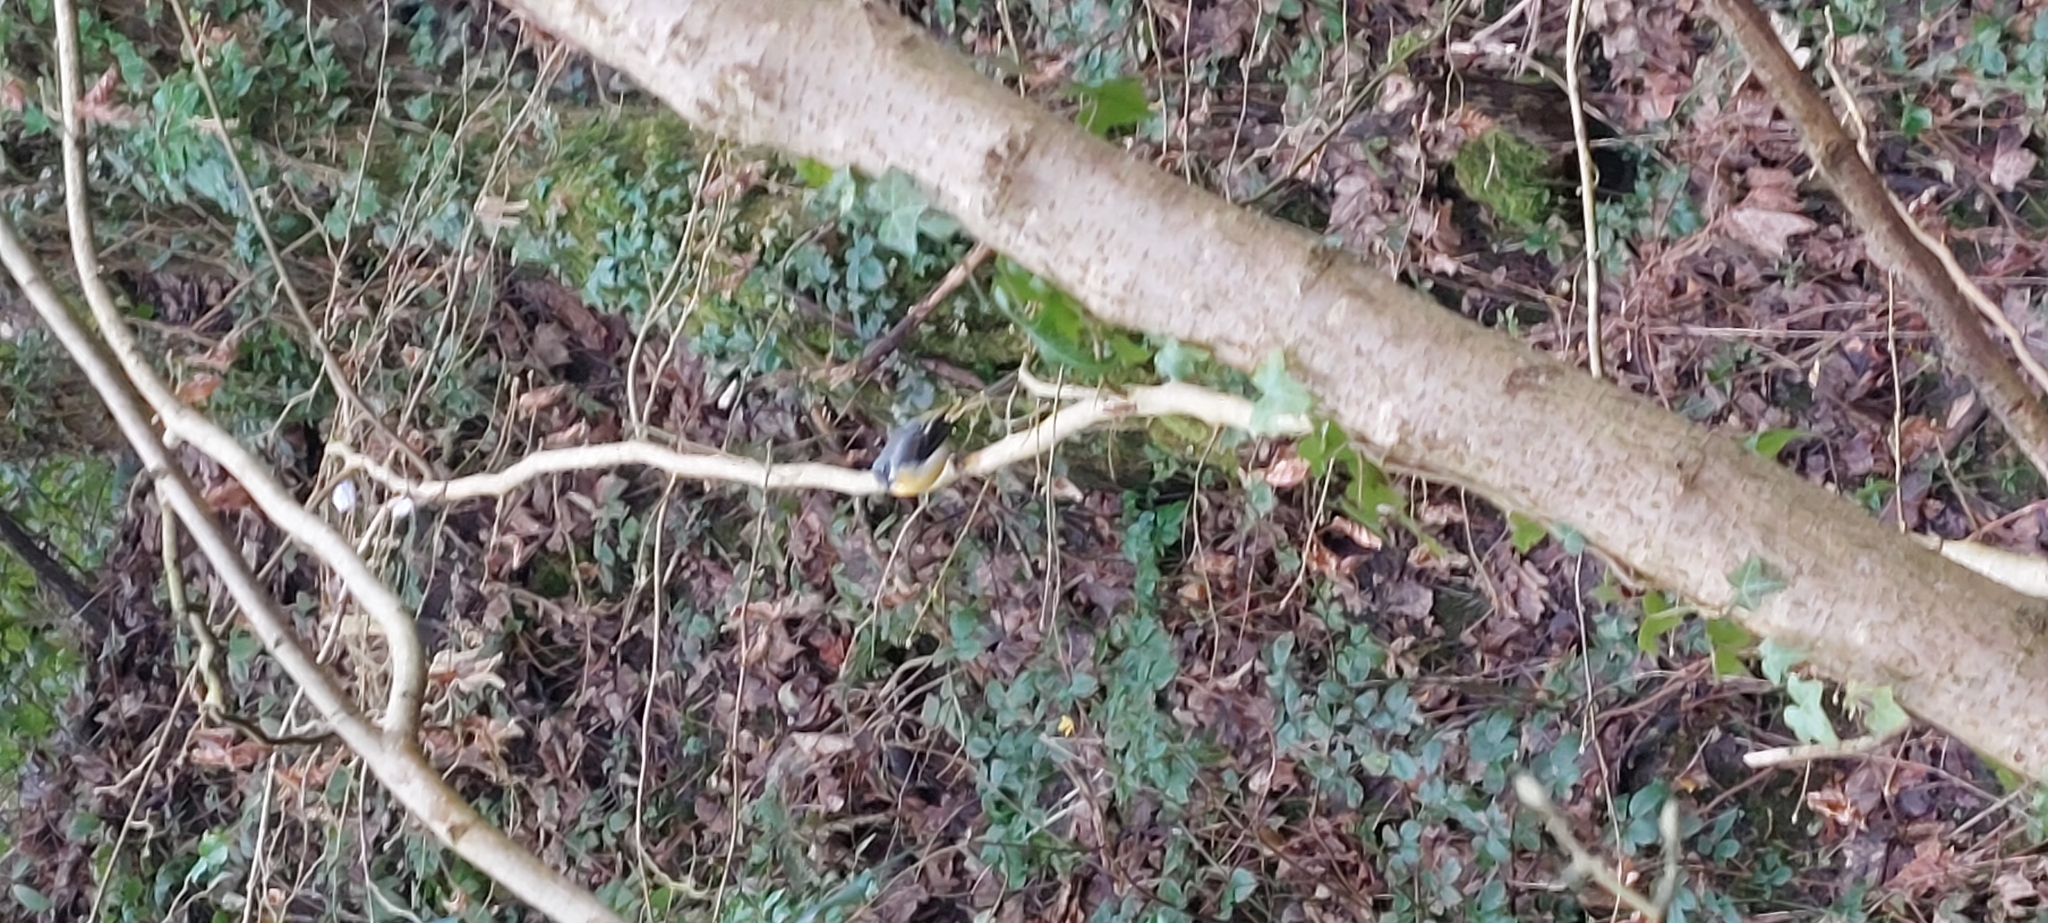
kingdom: Animalia
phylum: Chordata
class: Aves
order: Passeriformes
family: Motacillidae
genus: Motacilla
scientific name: Motacilla cinerea
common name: Grey wagtail
